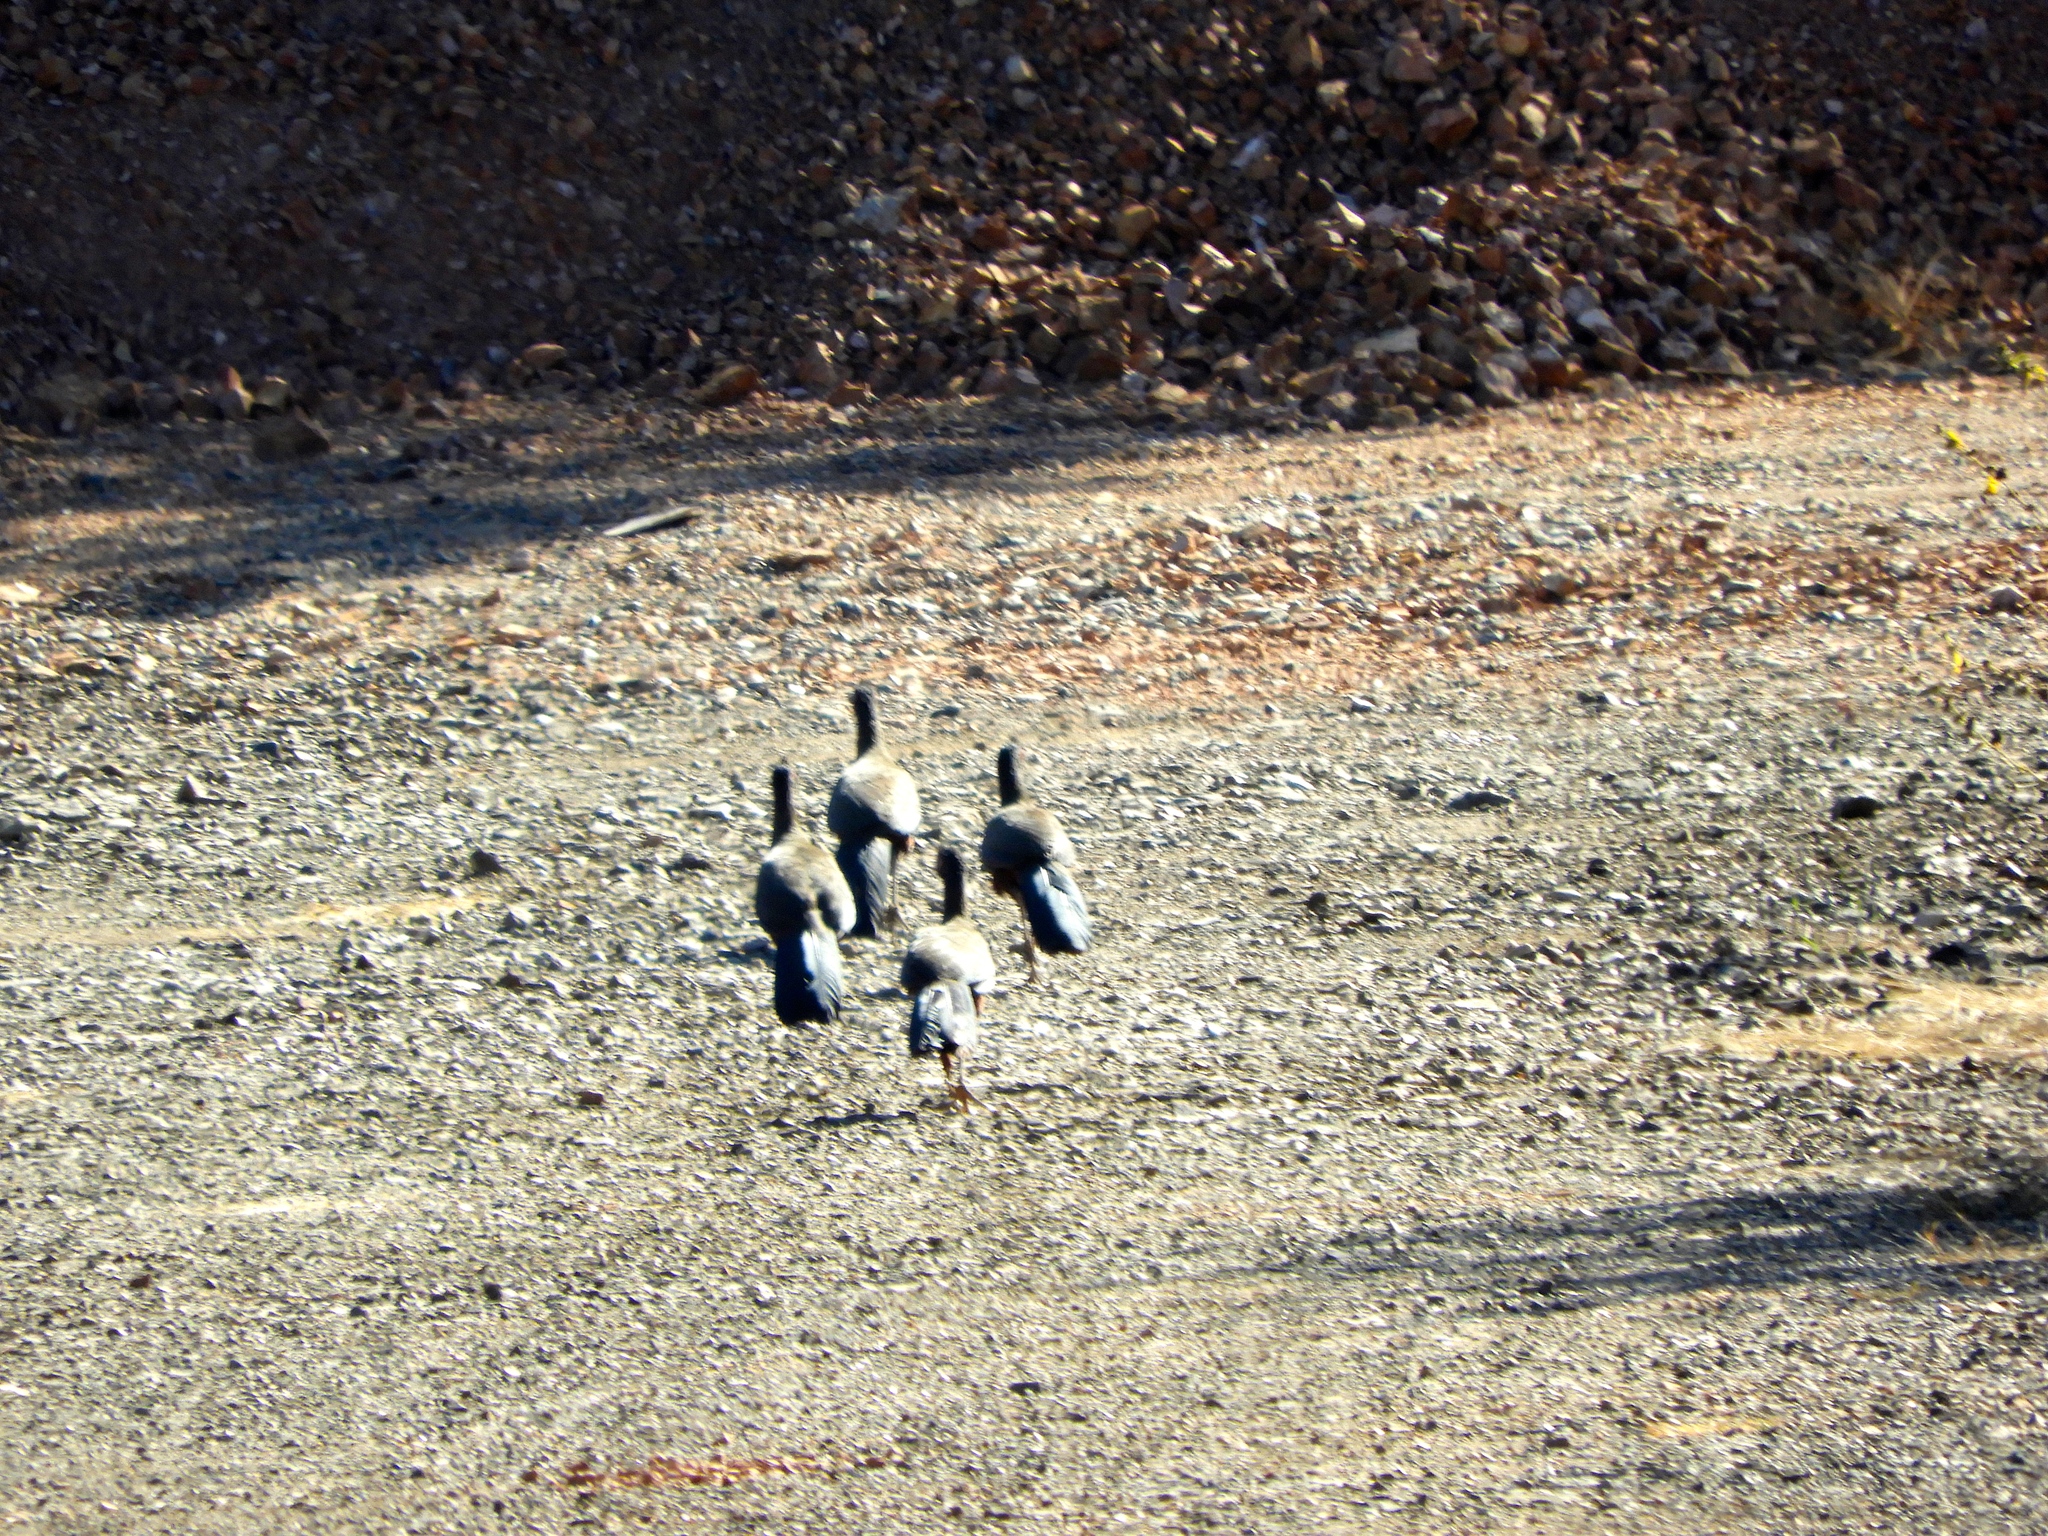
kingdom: Animalia
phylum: Chordata
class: Aves
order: Galliformes
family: Cracidae
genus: Ortalis
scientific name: Ortalis wagleri
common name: Rufous-bellied chachalaca
